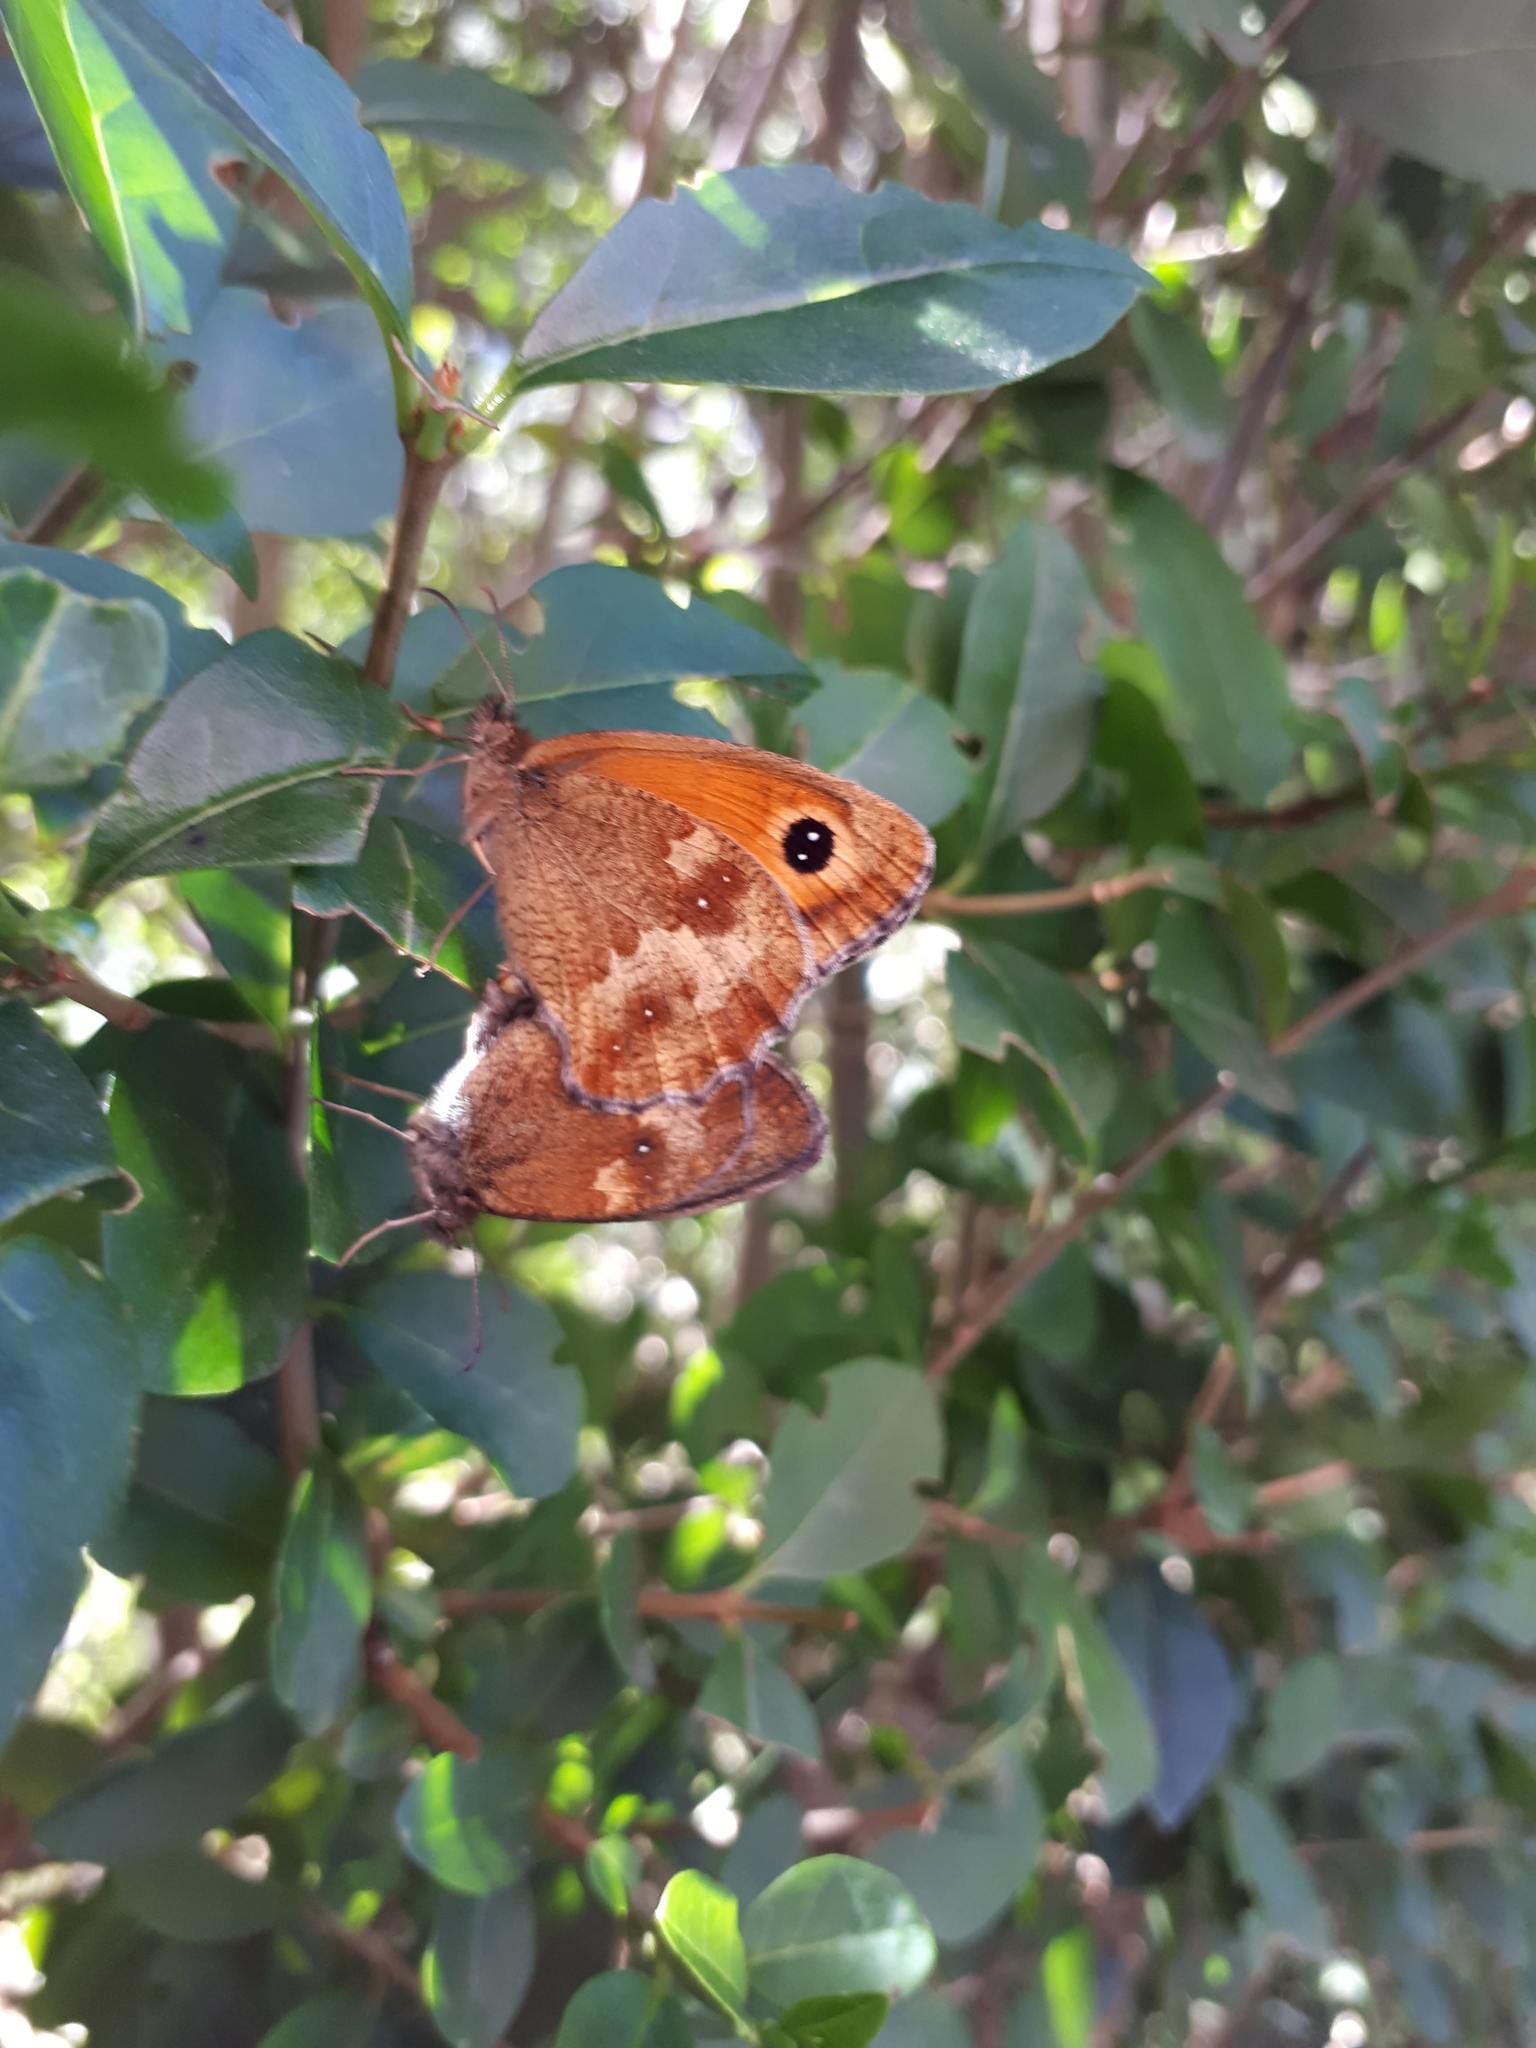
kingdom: Animalia
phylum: Arthropoda
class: Insecta
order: Lepidoptera
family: Nymphalidae
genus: Pyronia
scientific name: Pyronia tithonus
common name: Gatekeeper
